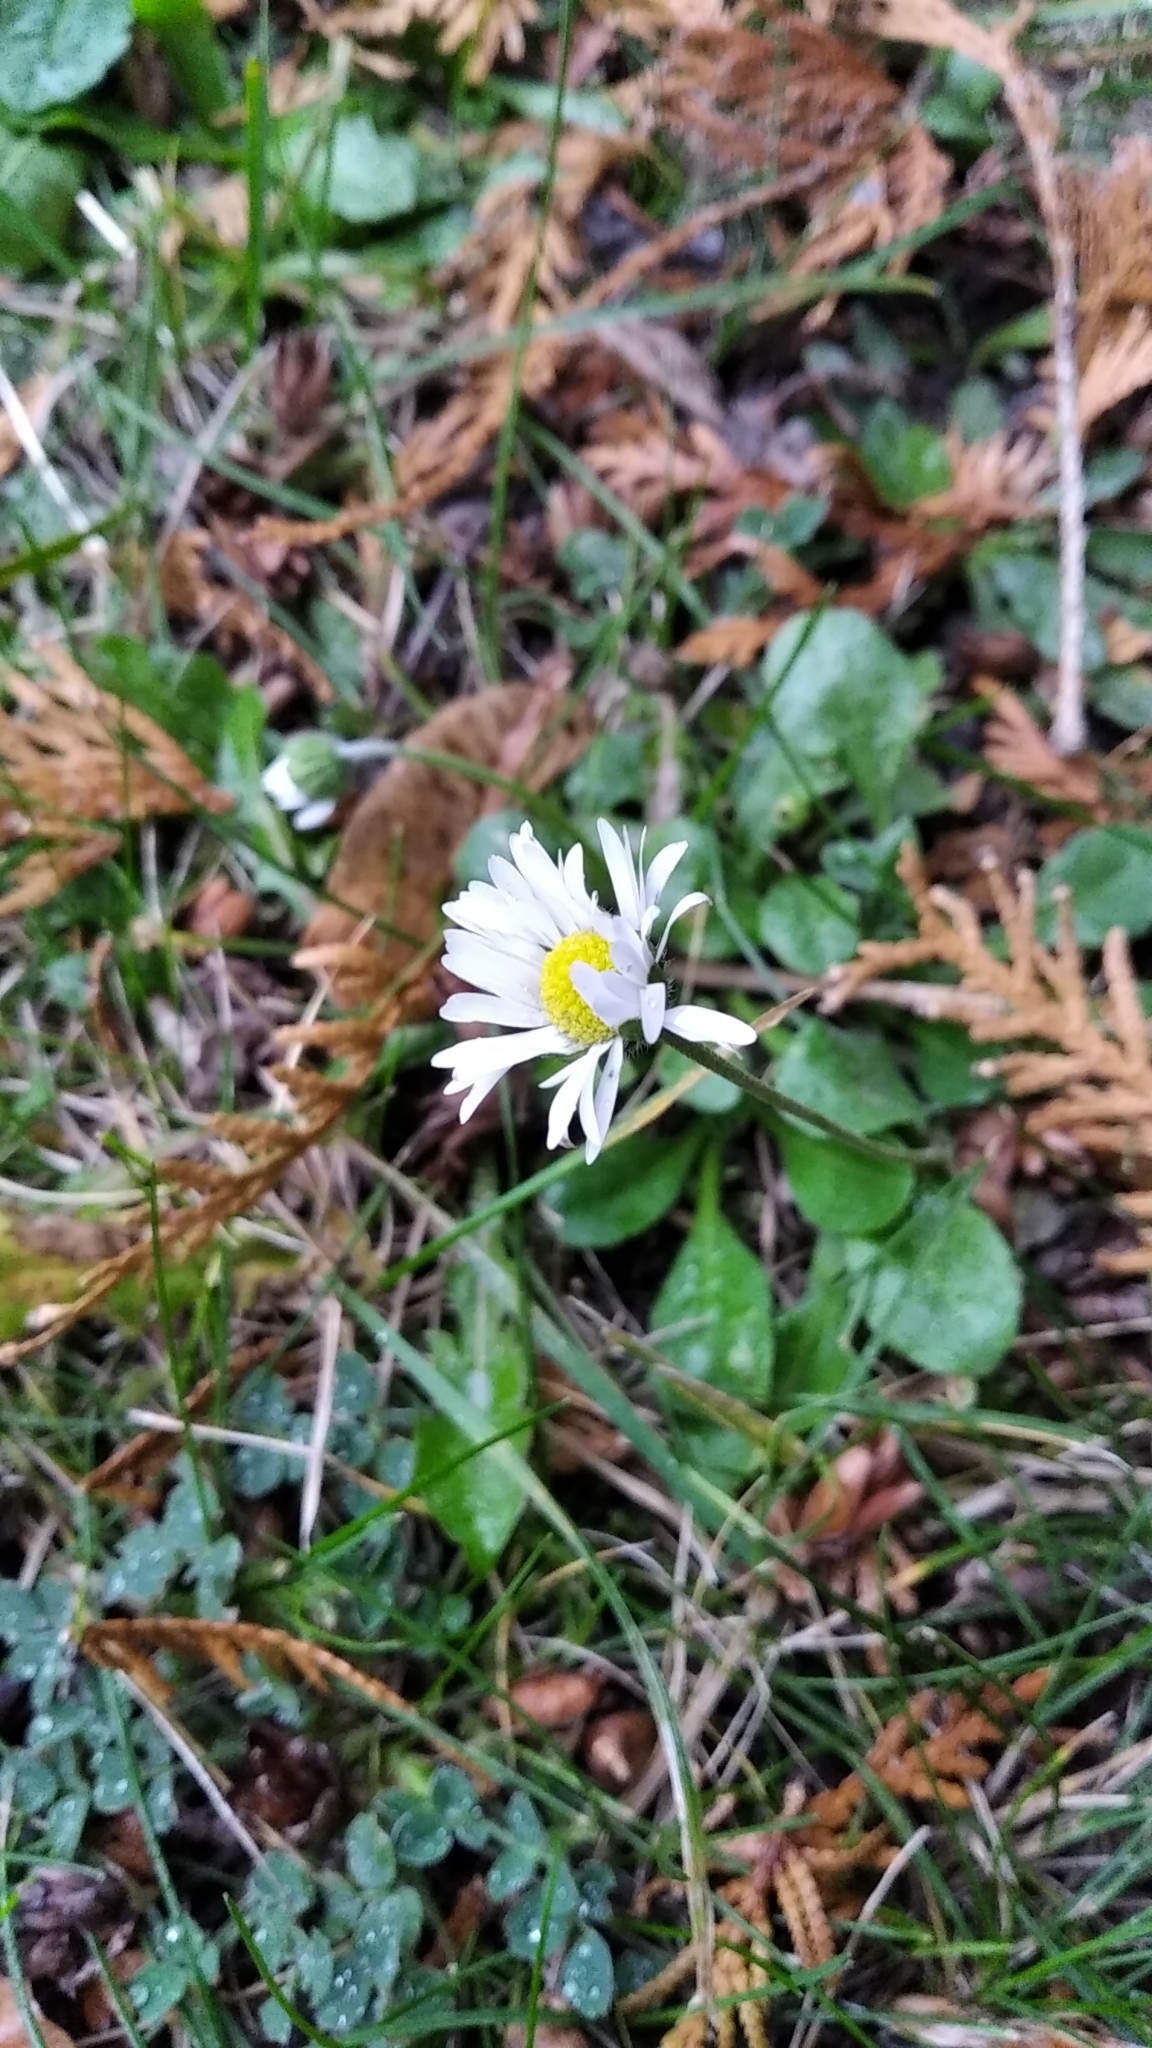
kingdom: Plantae
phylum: Tracheophyta
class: Magnoliopsida
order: Asterales
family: Asteraceae
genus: Bellis
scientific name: Bellis perennis
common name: Lawndaisy
